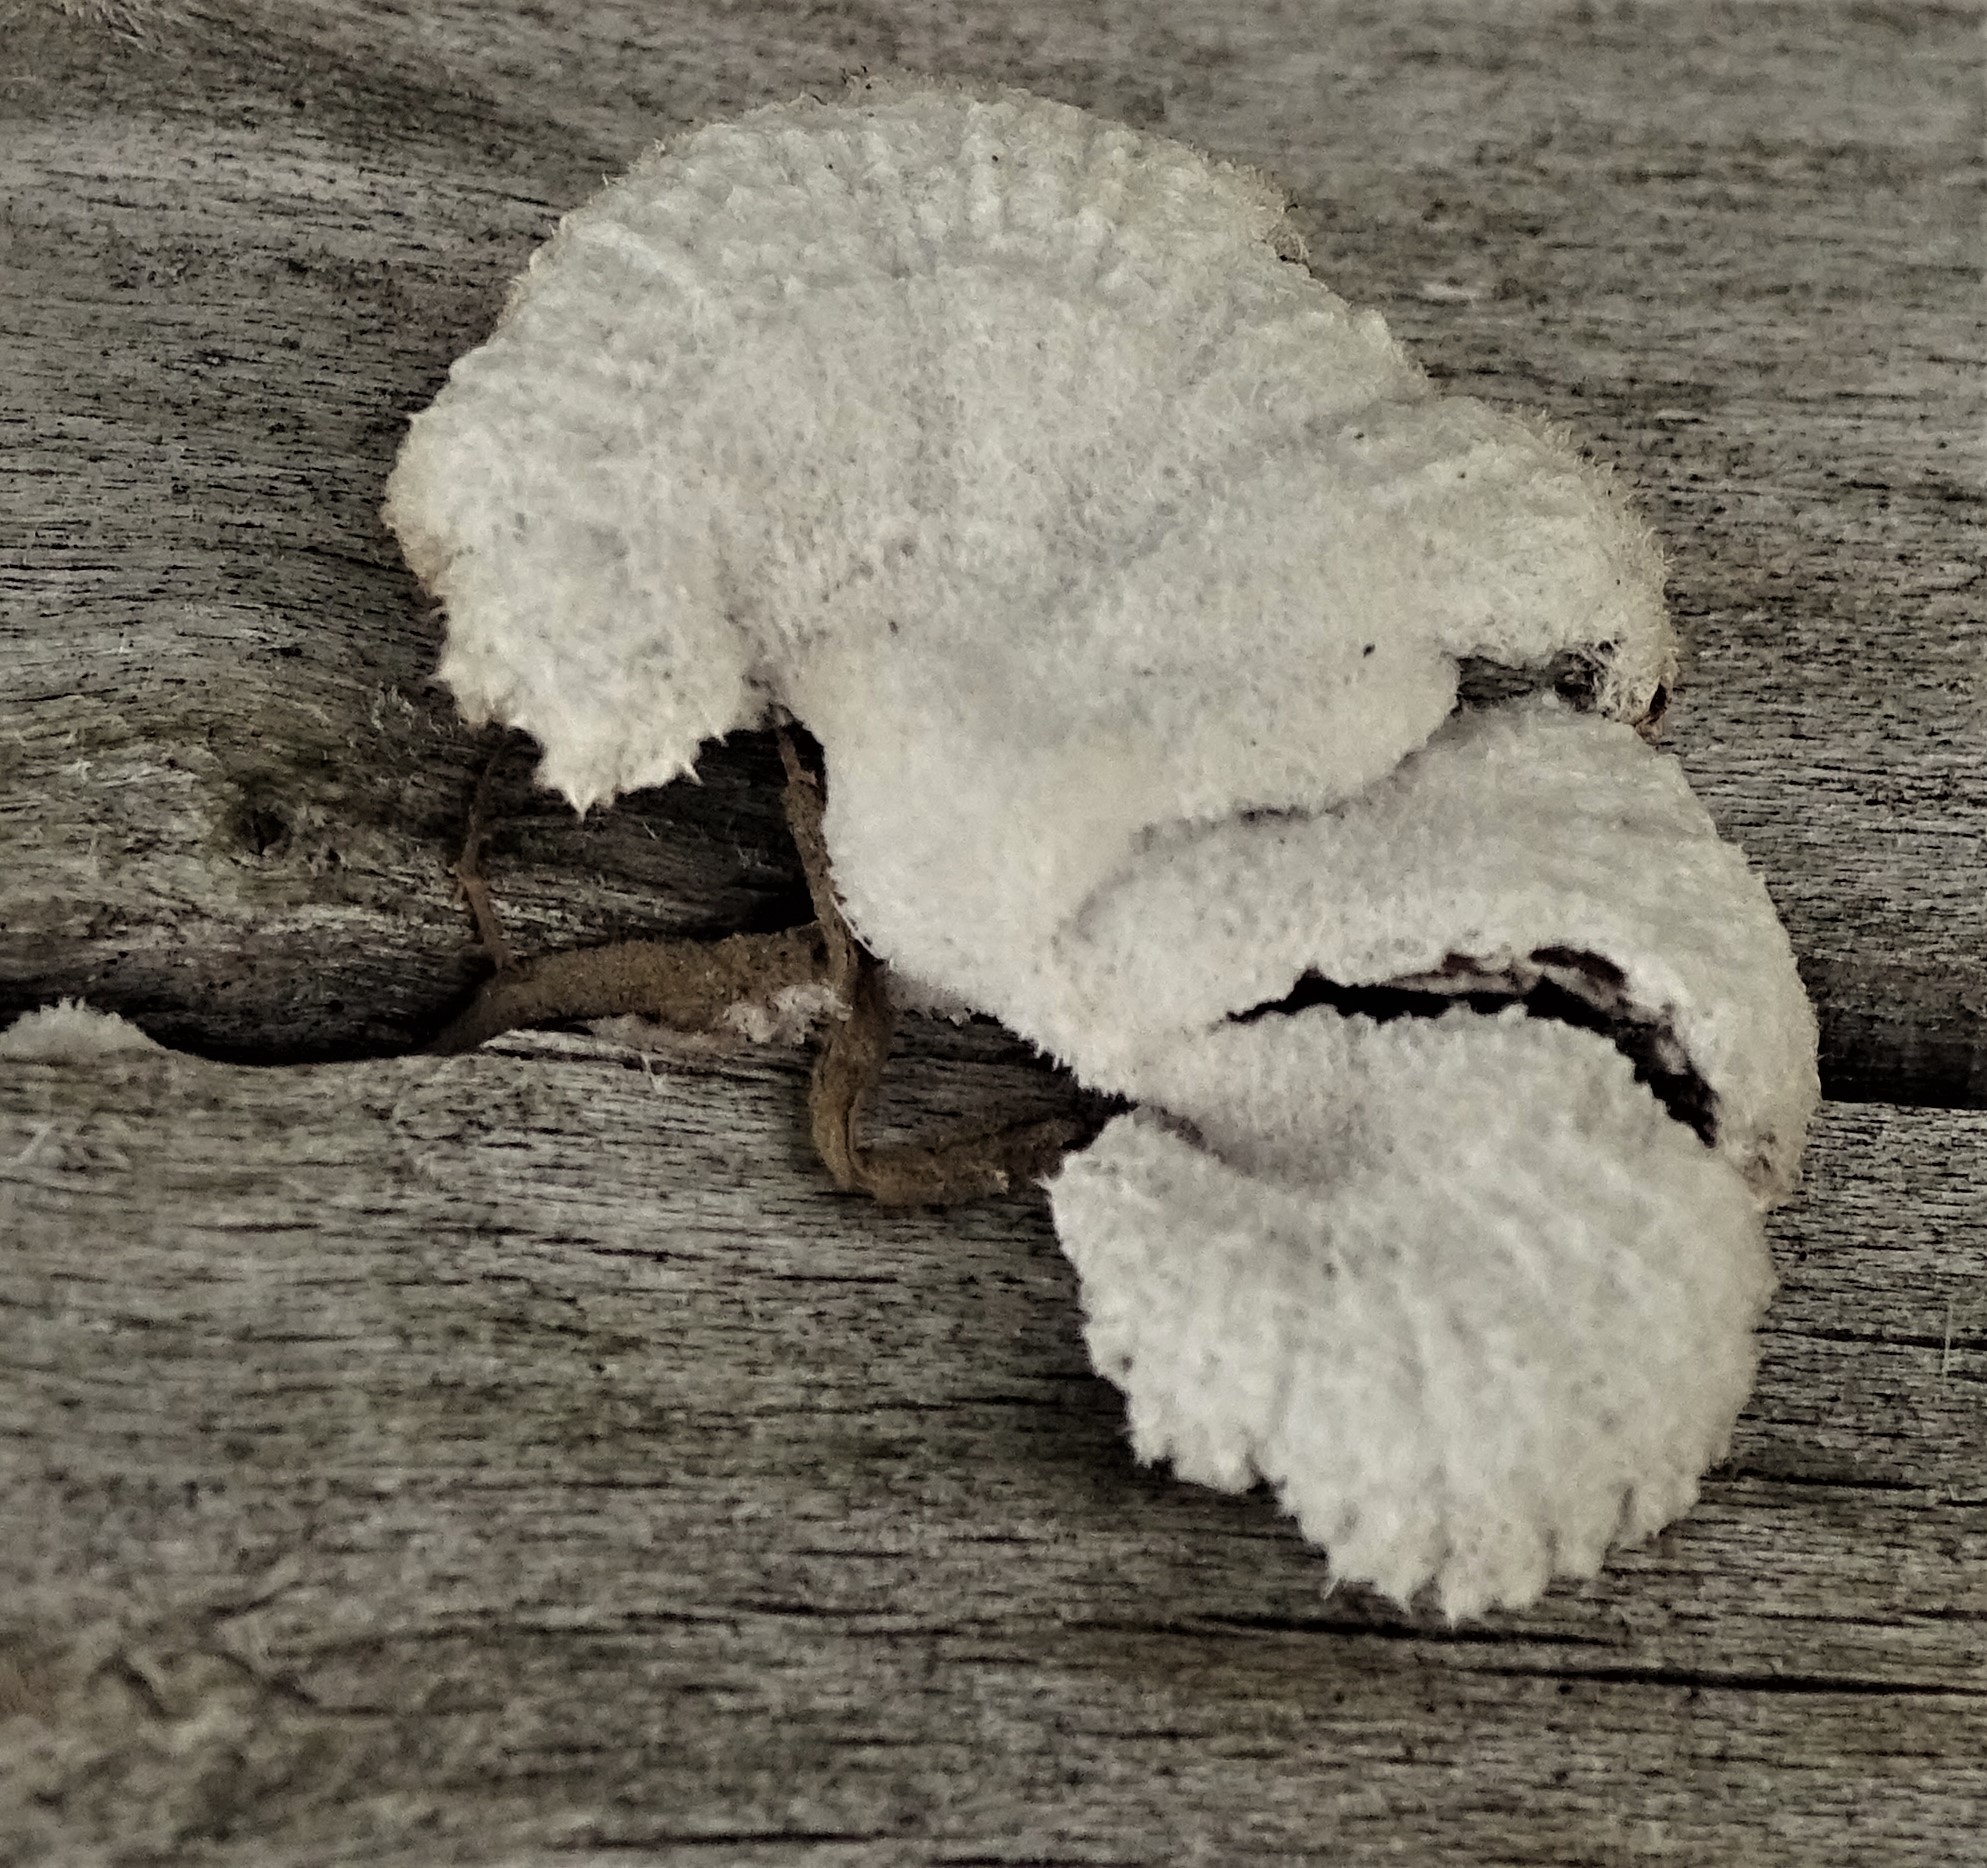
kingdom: Fungi
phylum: Basidiomycota
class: Agaricomycetes
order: Agaricales
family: Schizophyllaceae
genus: Schizophyllum
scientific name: Schizophyllum commune
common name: Common porecrust
